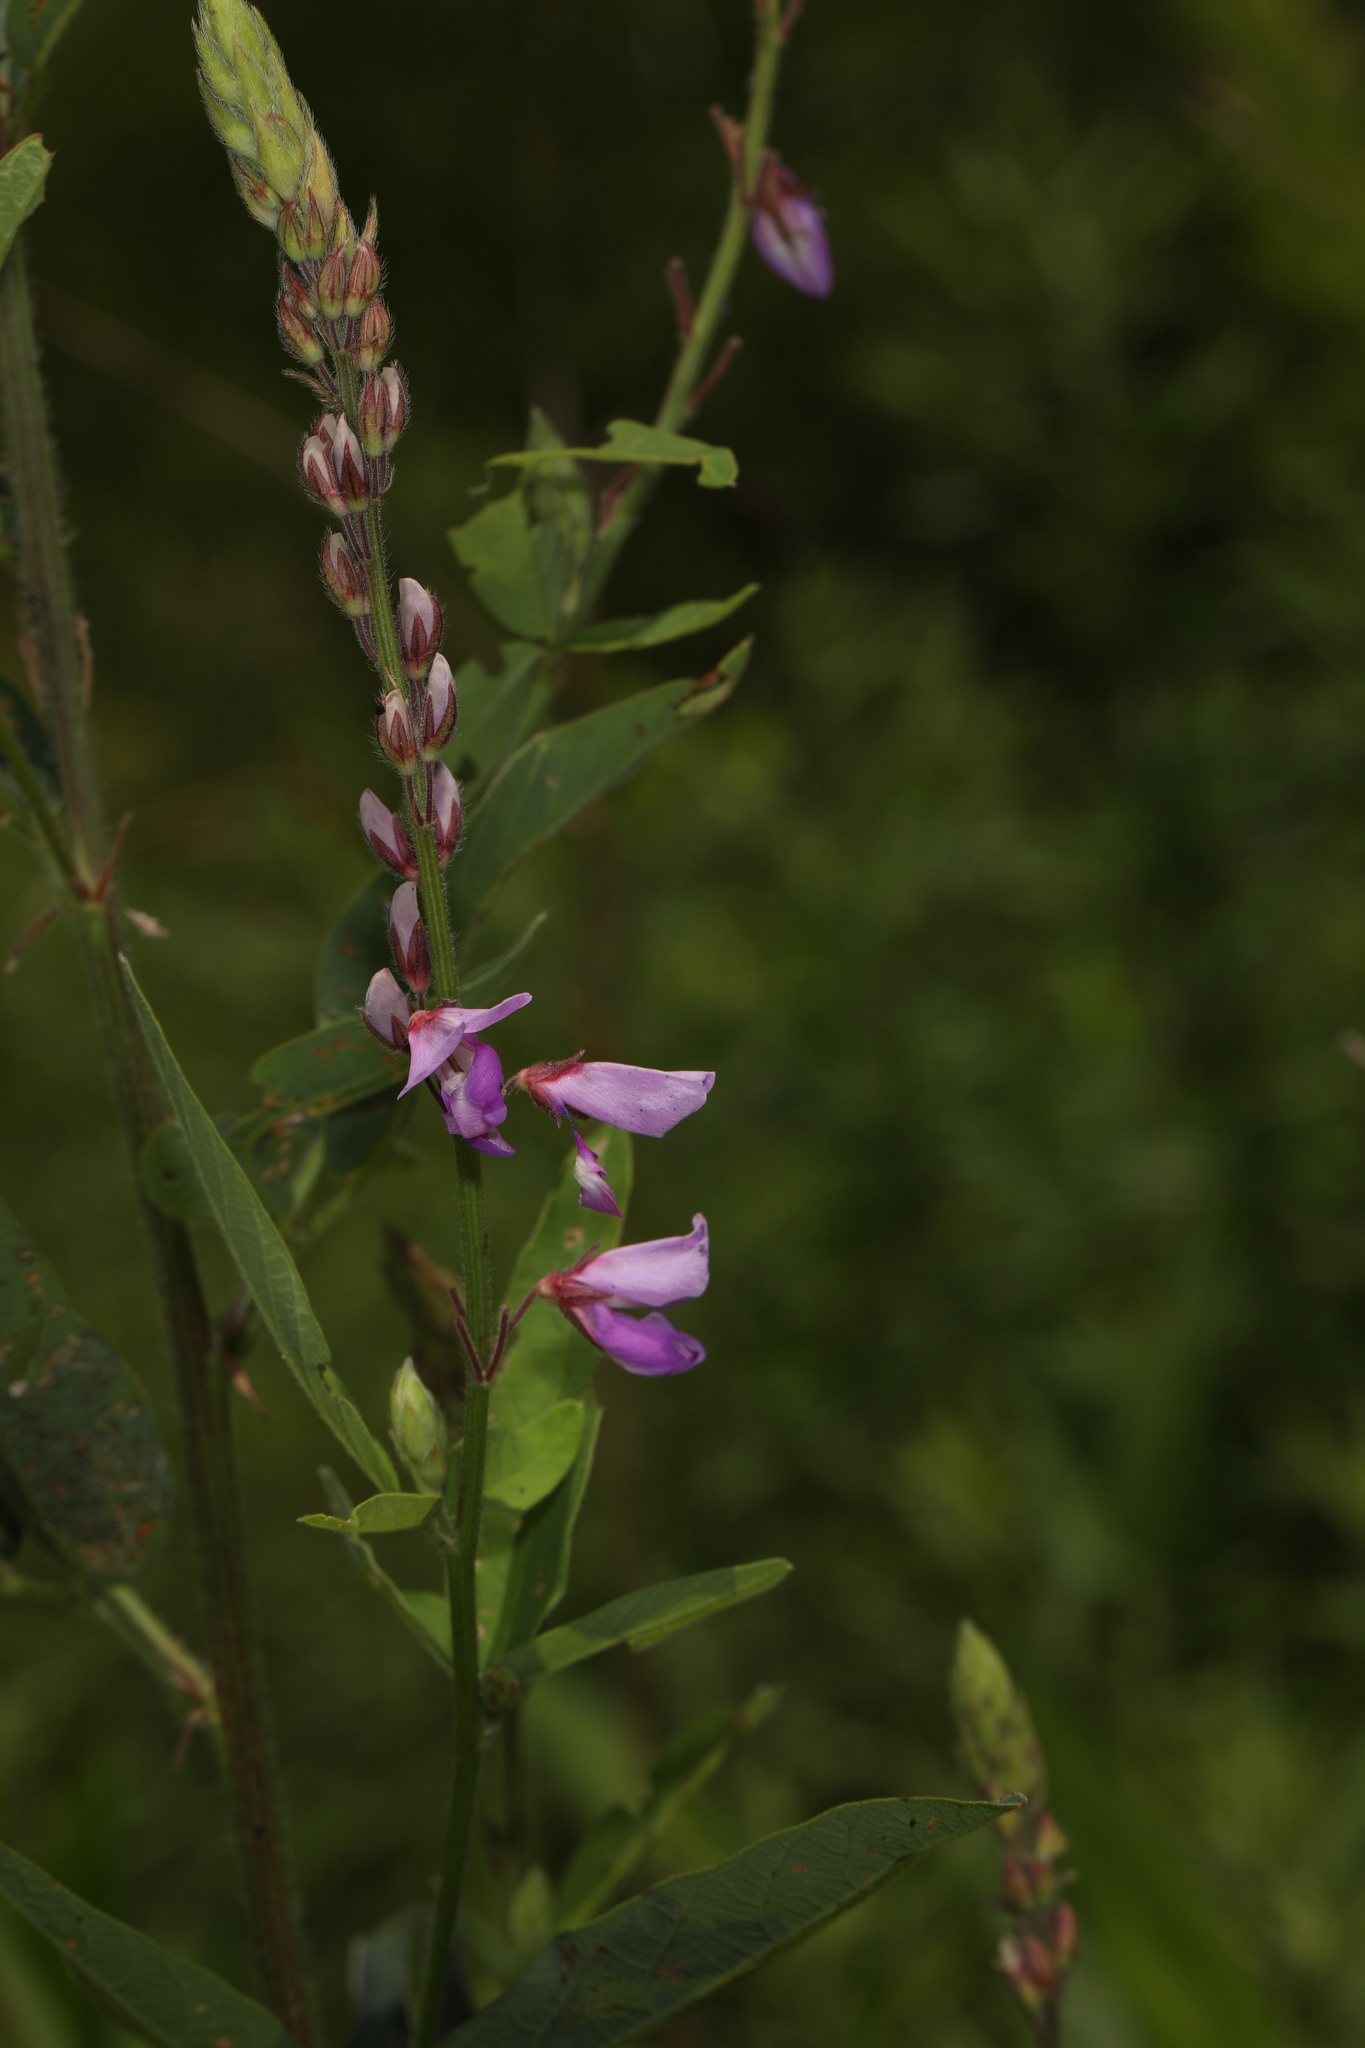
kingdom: Plantae
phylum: Tracheophyta
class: Magnoliopsida
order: Fabales
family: Fabaceae
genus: Desmodium
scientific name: Desmodium canadense
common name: Canada tick-trefoil
